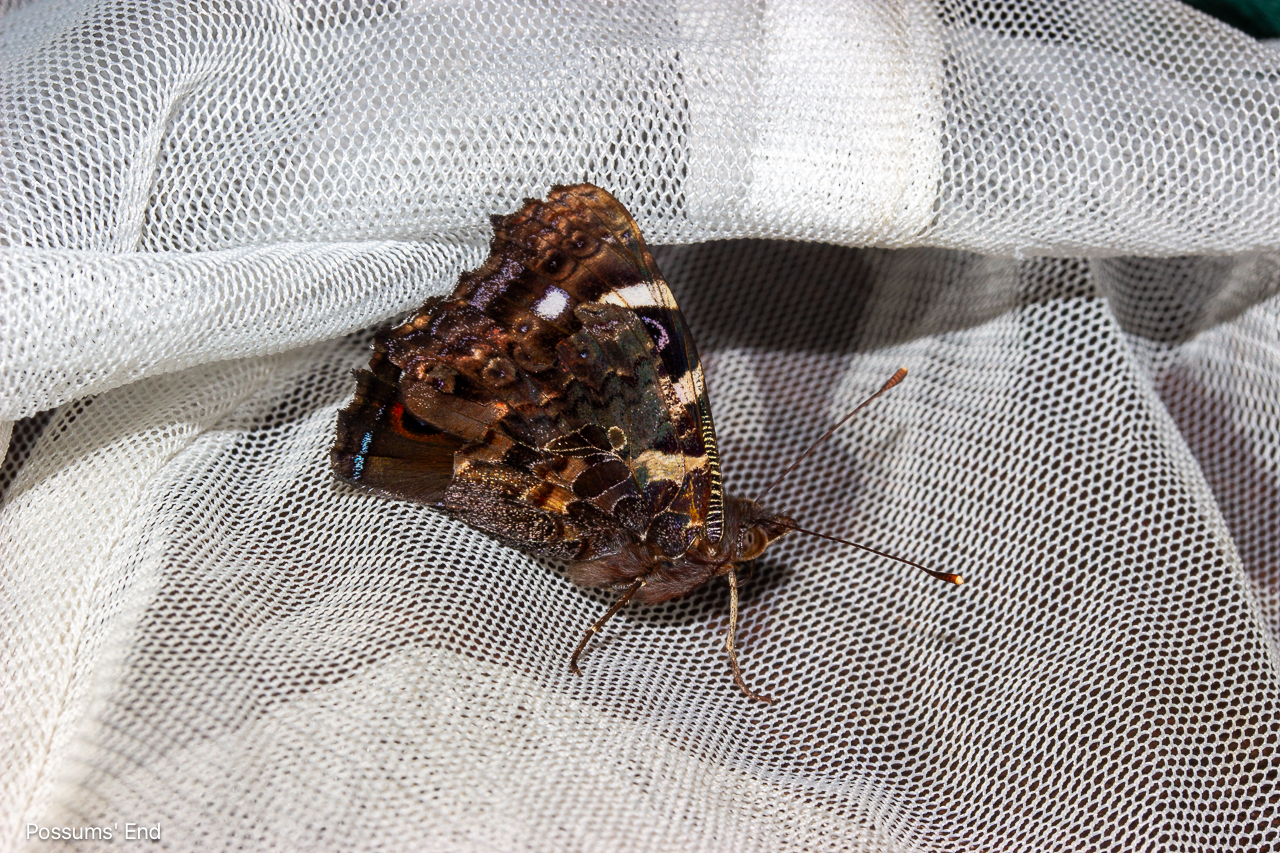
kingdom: Animalia
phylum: Arthropoda
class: Insecta
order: Lepidoptera
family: Nymphalidae
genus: Vanessa
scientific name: Vanessa gonerilla
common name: New zealand red admiral
